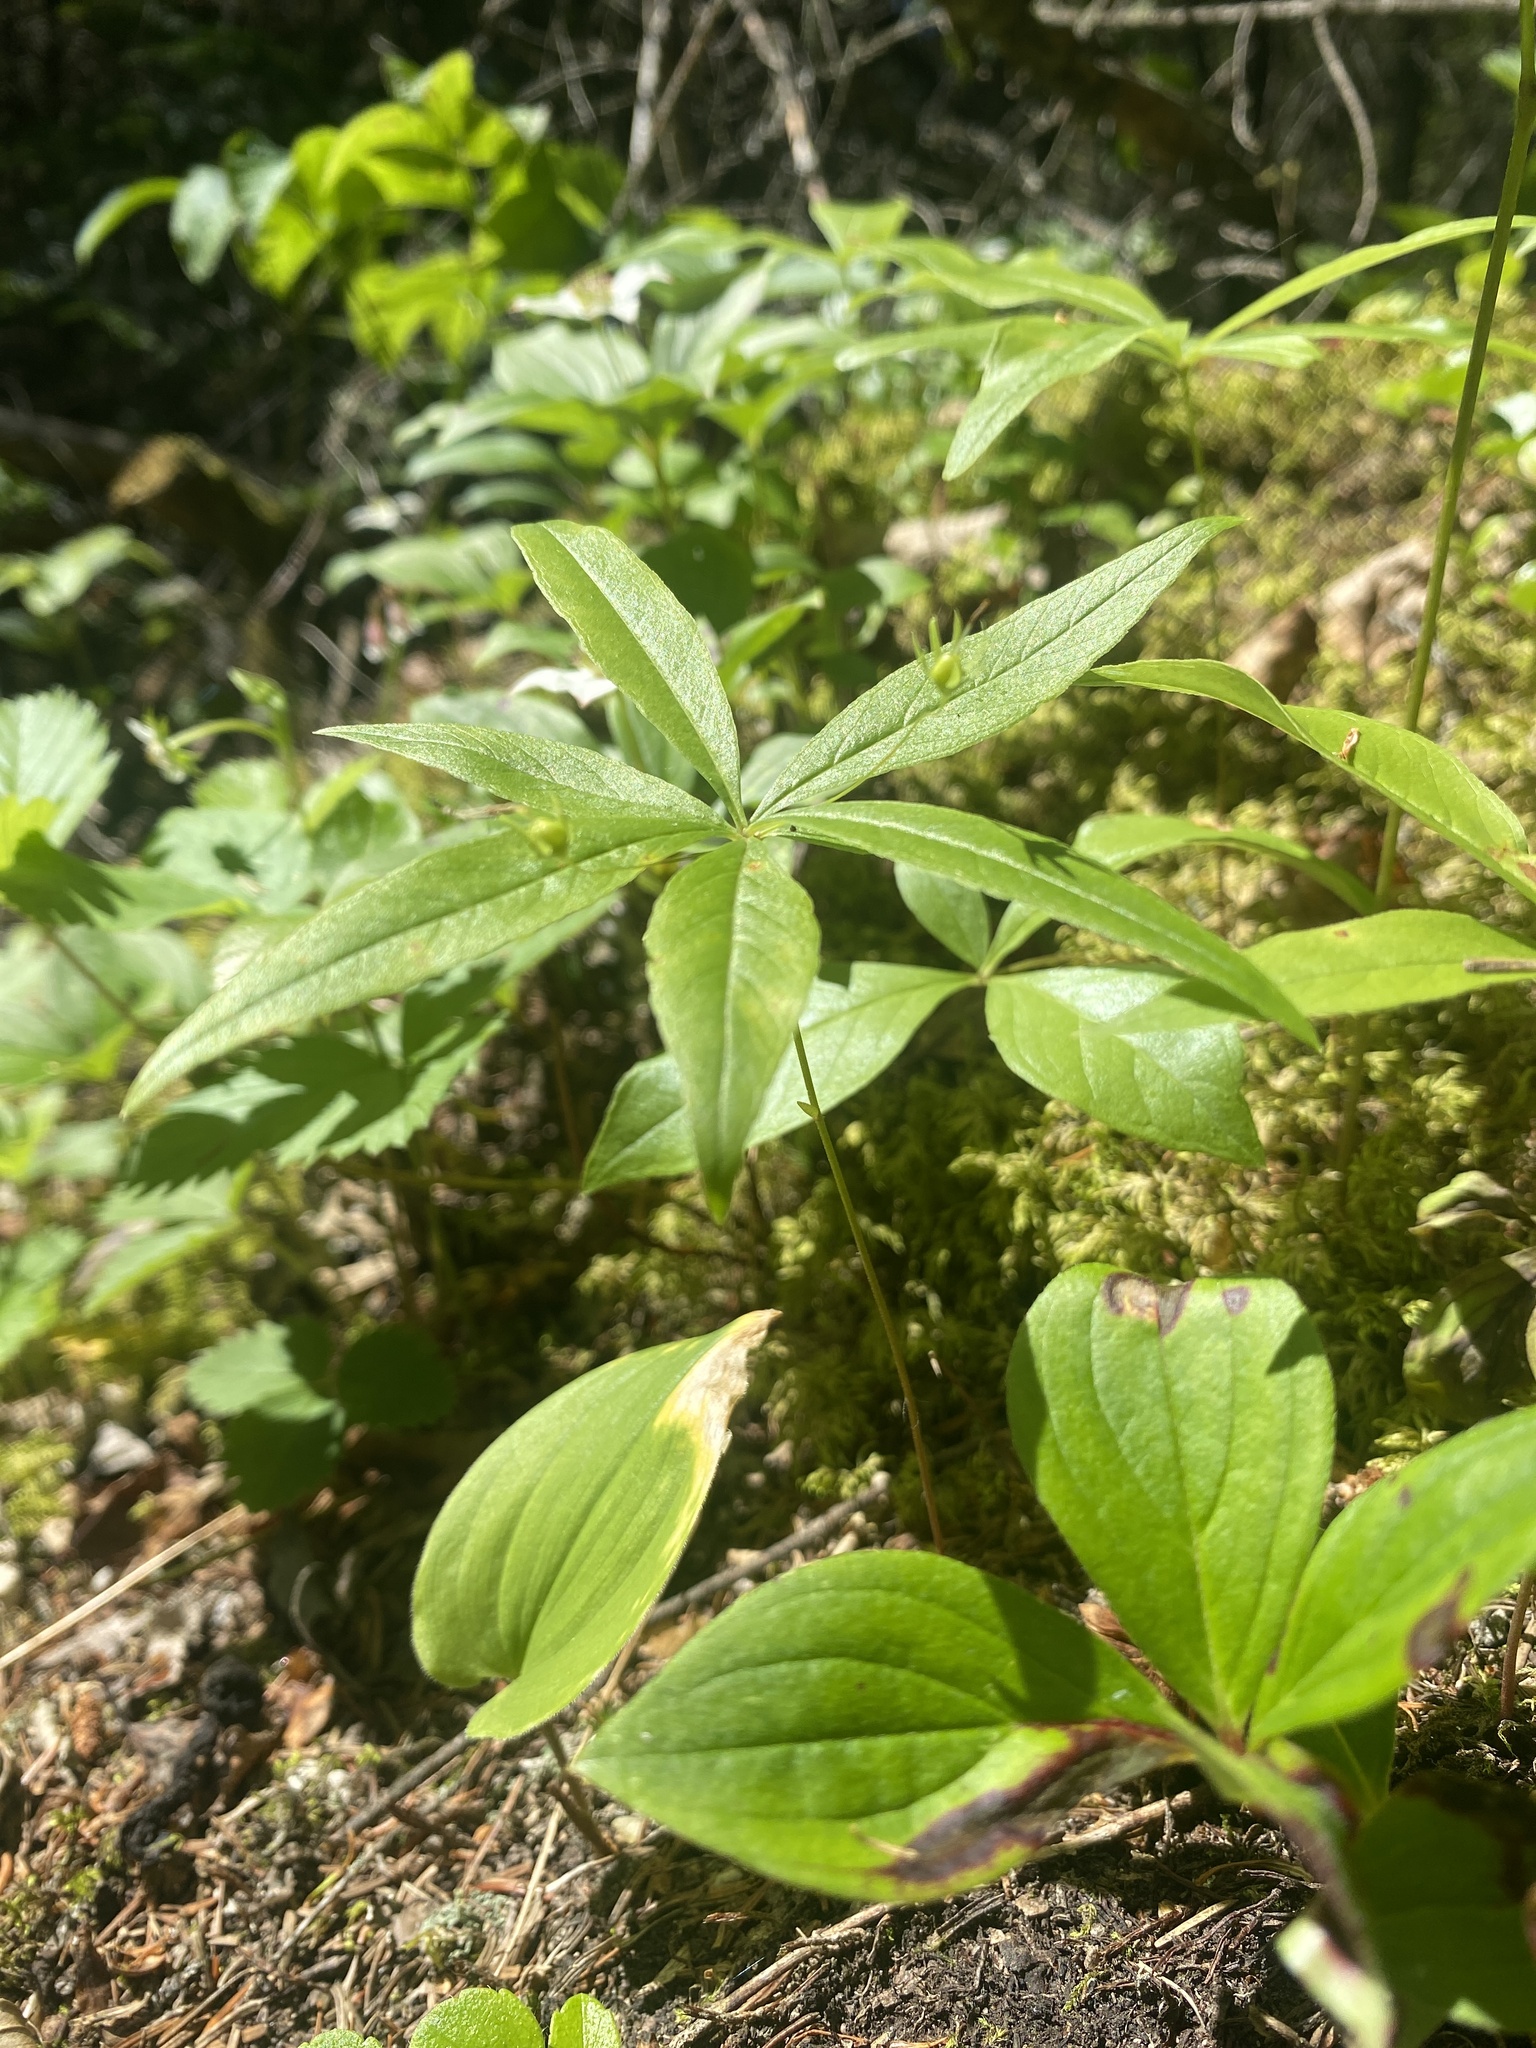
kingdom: Plantae
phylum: Tracheophyta
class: Magnoliopsida
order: Ericales
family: Primulaceae
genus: Lysimachia
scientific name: Lysimachia borealis
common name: American starflower
